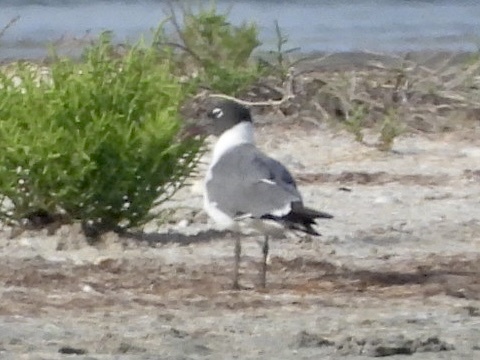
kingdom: Animalia
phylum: Chordata
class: Aves
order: Charadriiformes
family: Laridae
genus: Leucophaeus
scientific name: Leucophaeus atricilla
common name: Laughing gull
